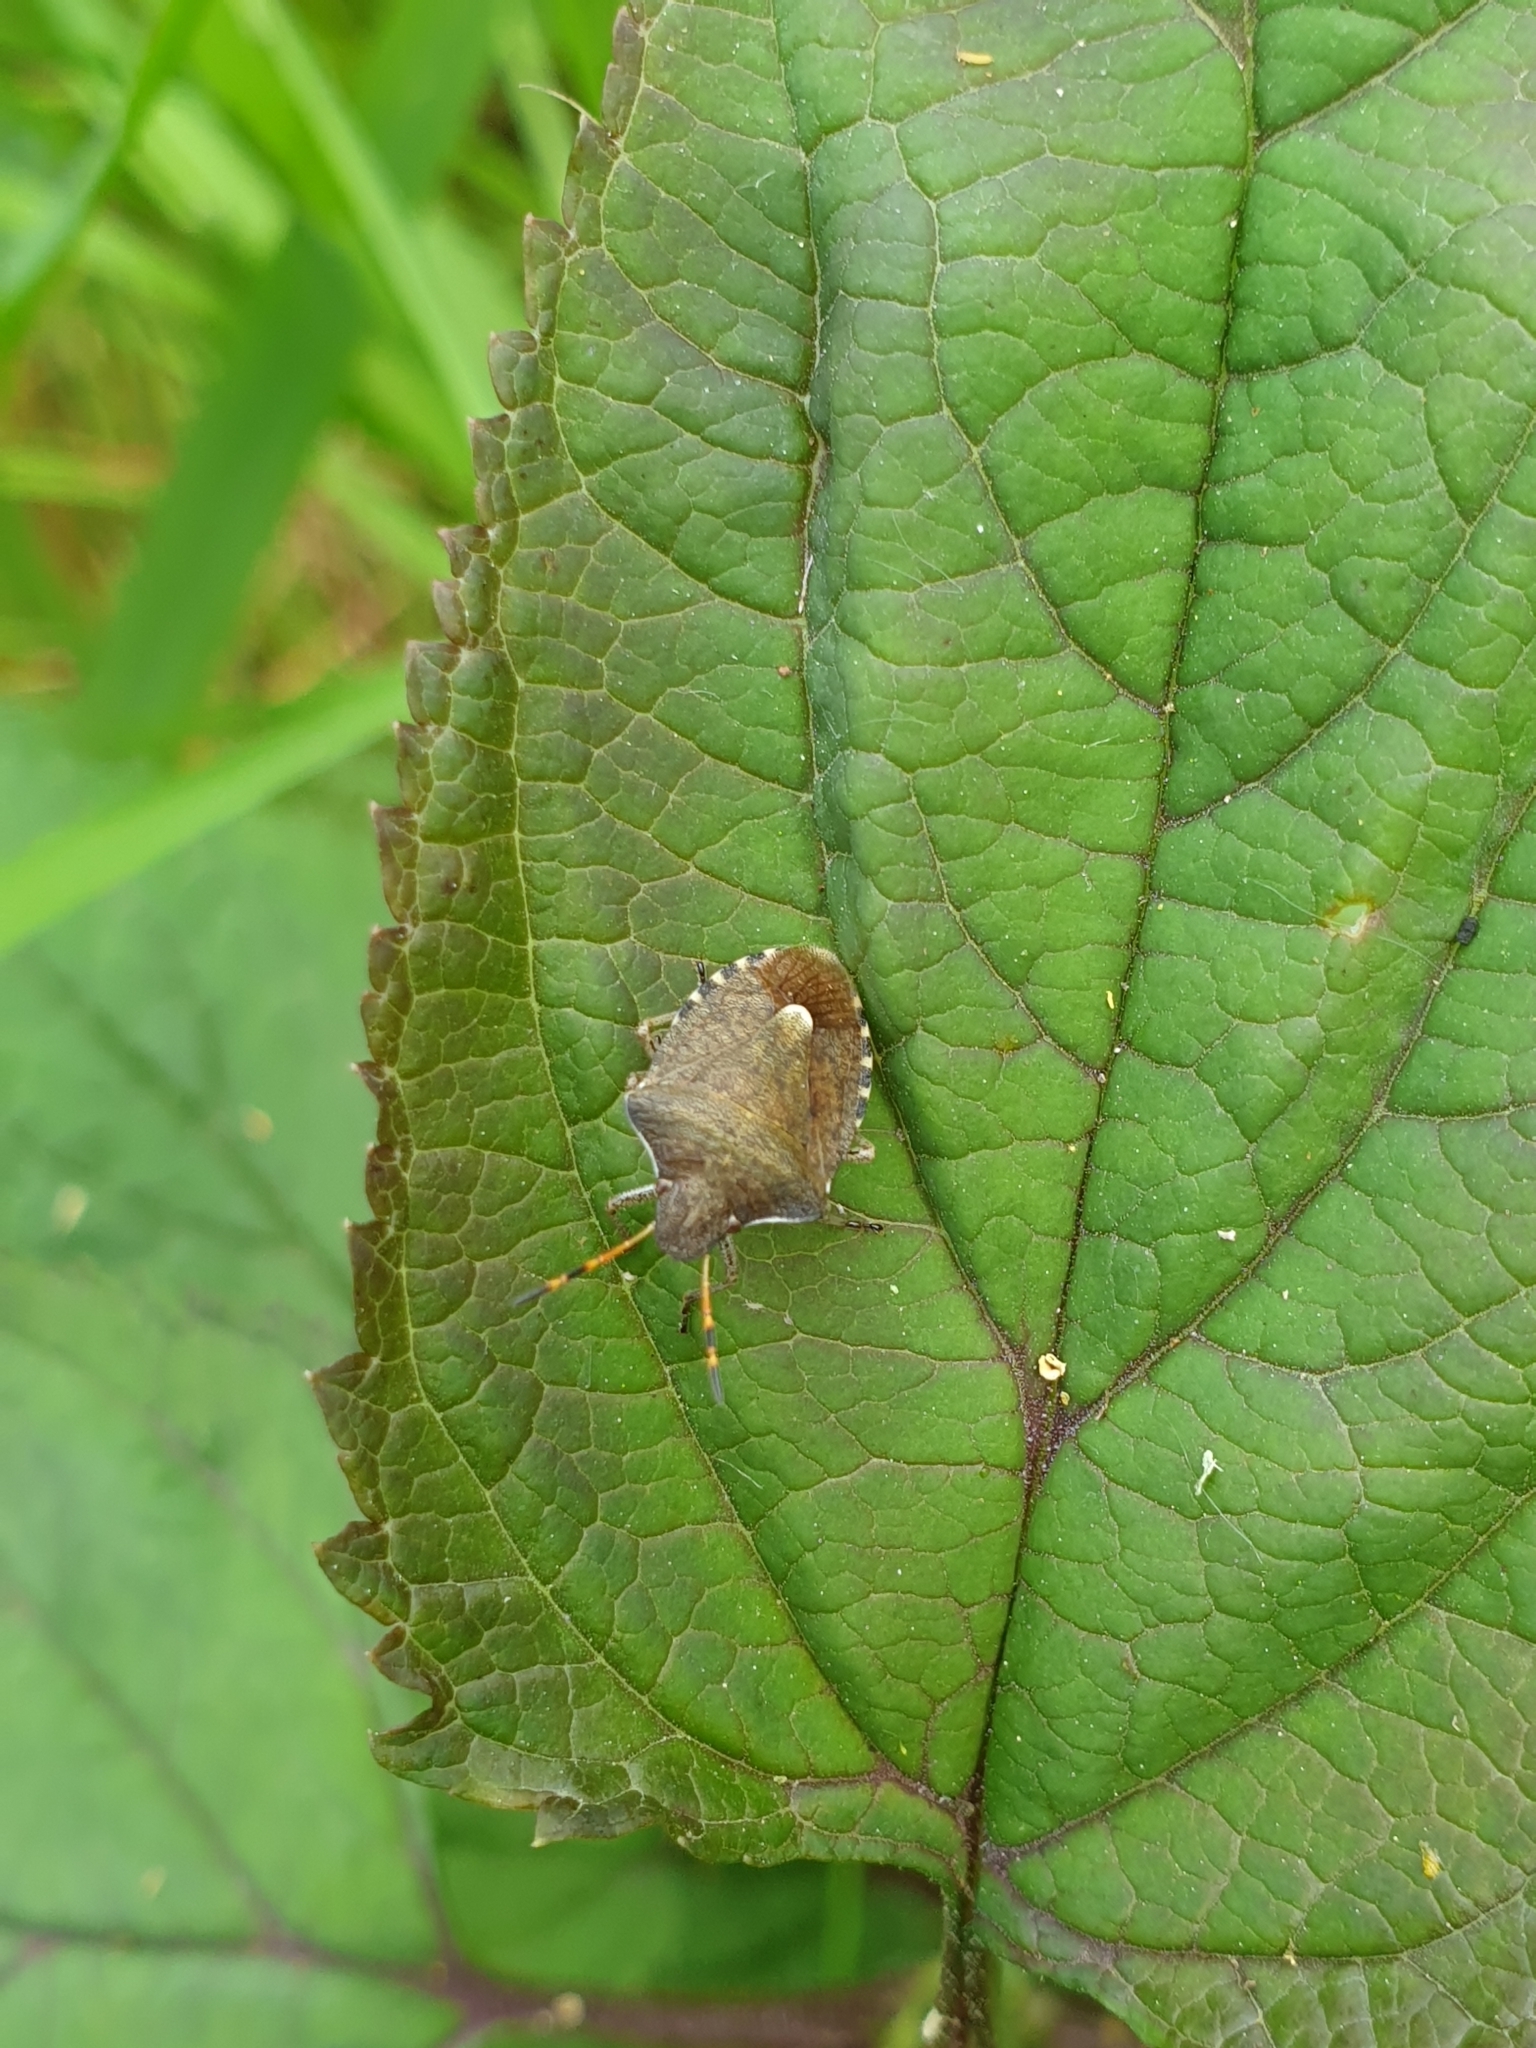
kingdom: Animalia
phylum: Arthropoda
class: Insecta
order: Hemiptera
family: Pentatomidae
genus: Holcostethus
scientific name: Holcostethus strictus
